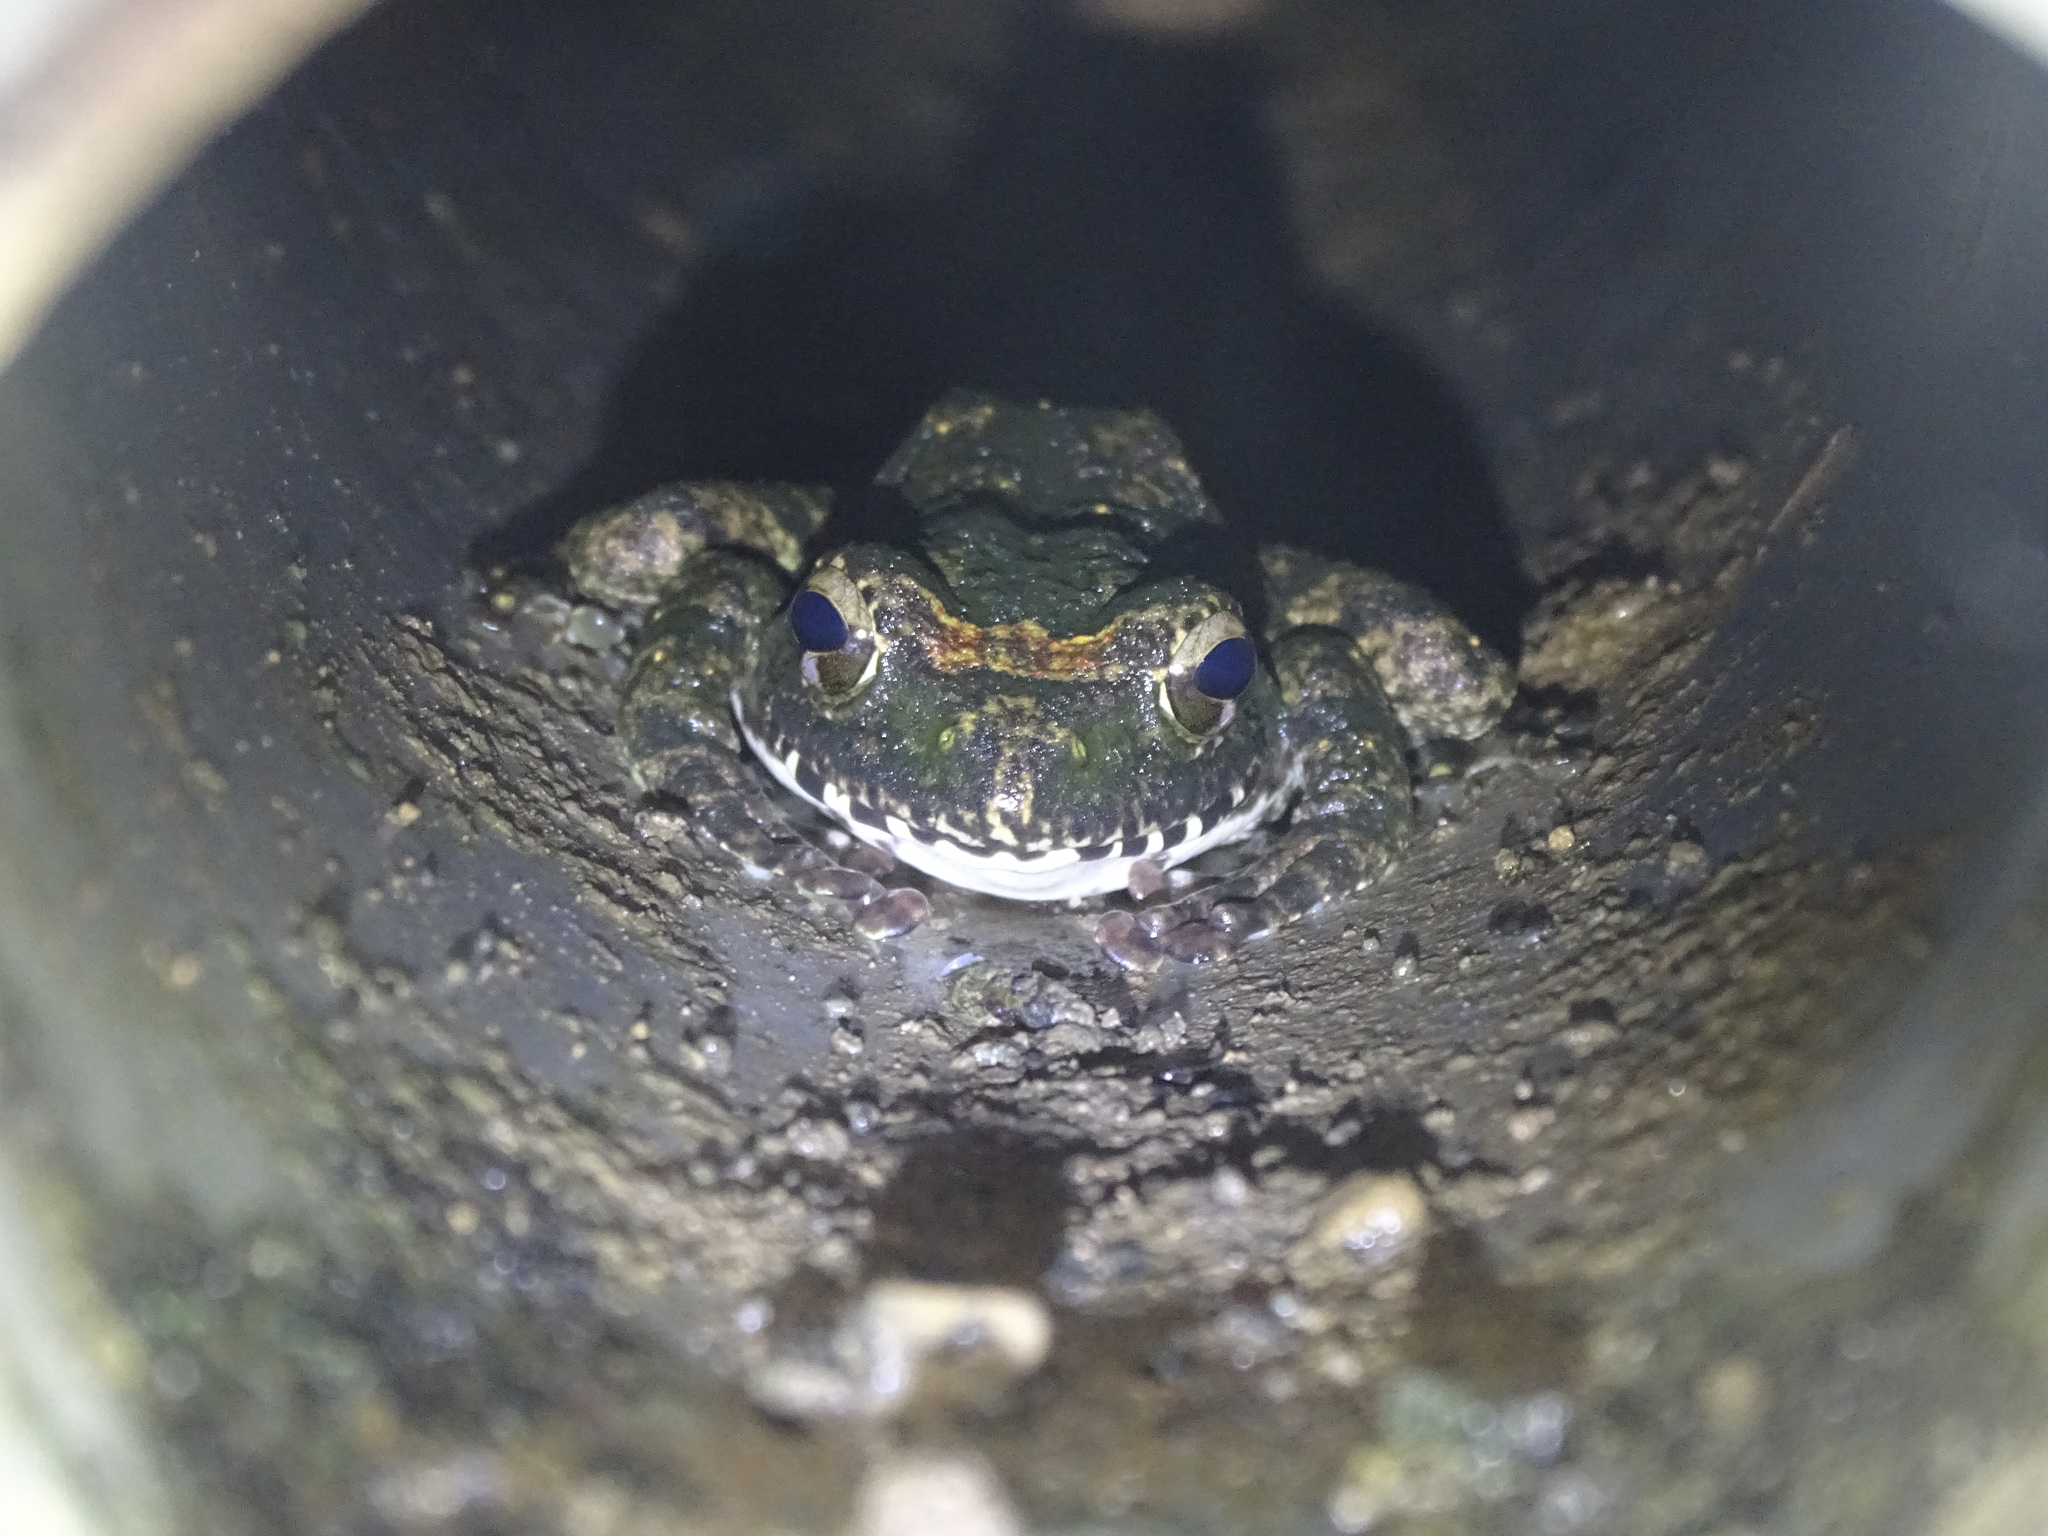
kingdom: Animalia
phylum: Chordata
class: Amphibia
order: Anura
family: Rhacophoridae
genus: Buergeria
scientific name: Buergeria robusta
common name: Brown treefrog
